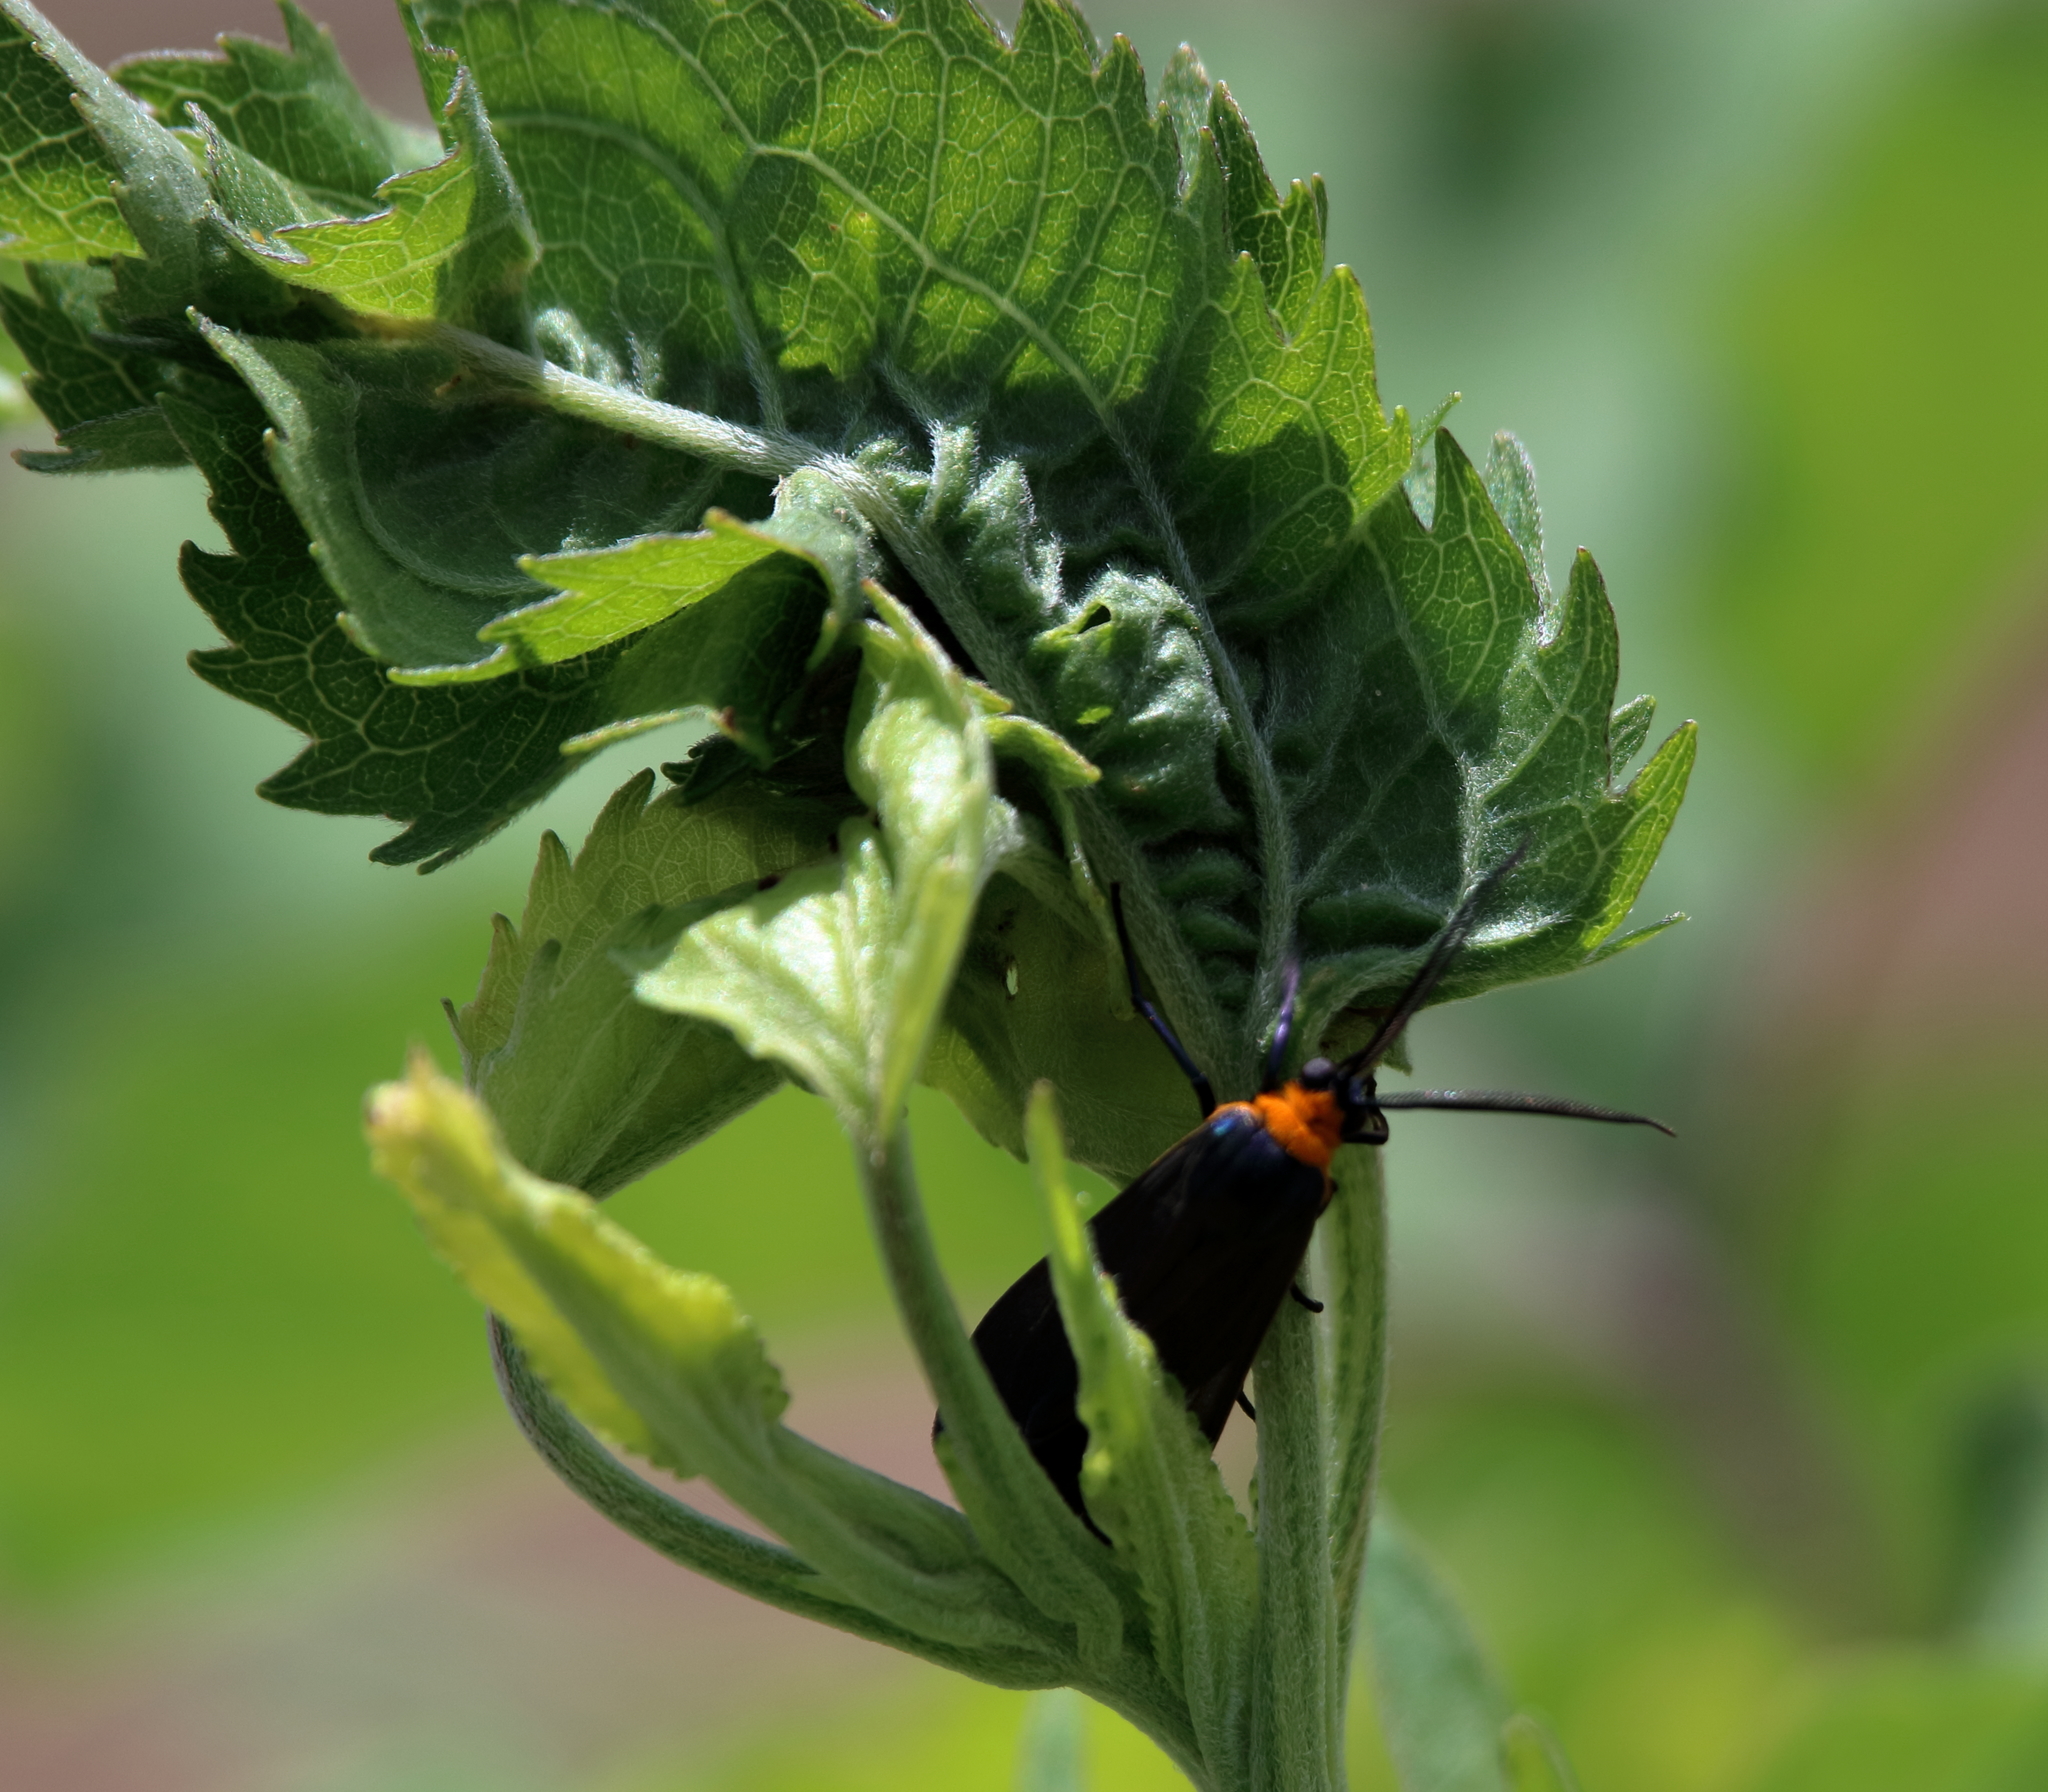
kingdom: Animalia
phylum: Arthropoda
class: Insecta
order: Lepidoptera
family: Erebidae
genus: Cisseps
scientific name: Cisseps fulvicollis
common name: Yellow-collared scape moth
